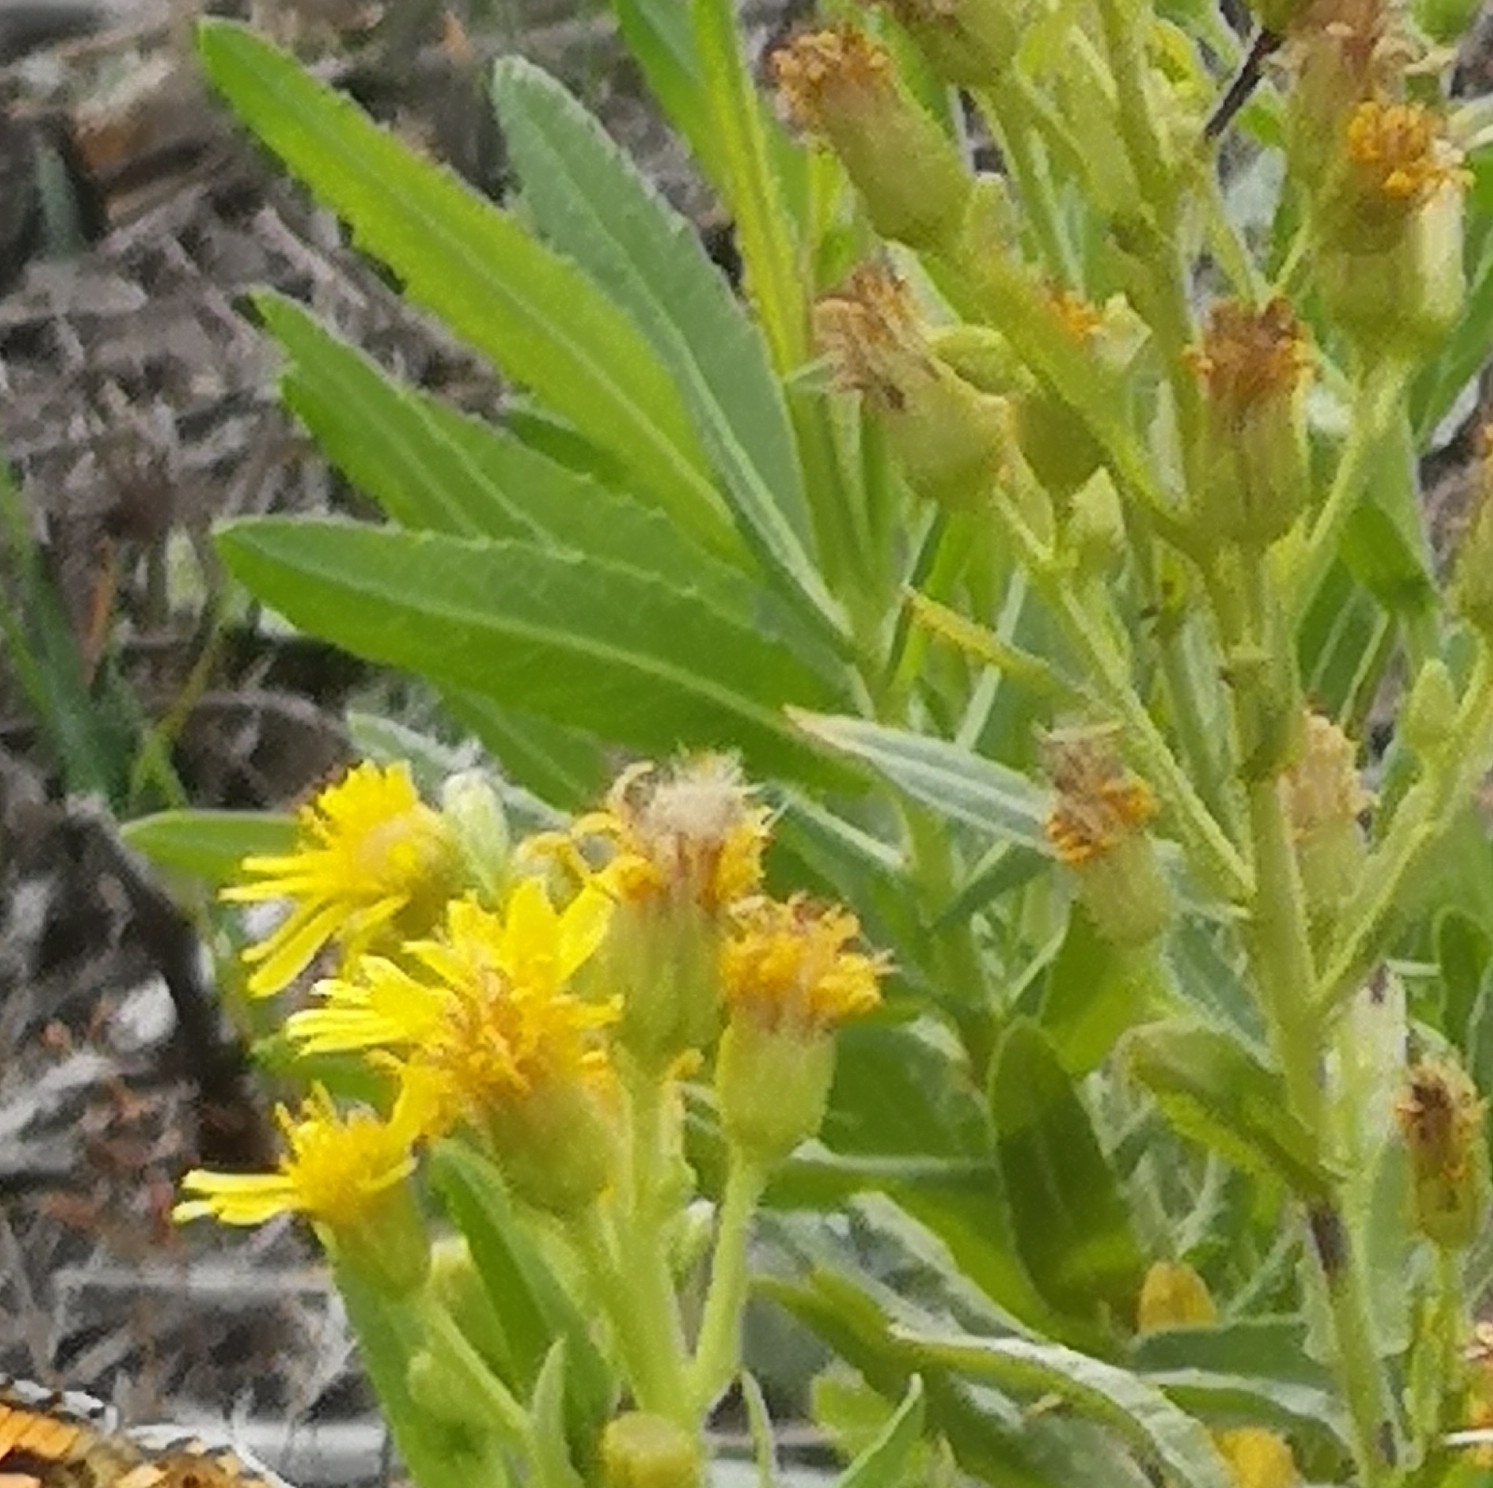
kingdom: Plantae
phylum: Tracheophyta
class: Magnoliopsida
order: Asterales
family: Asteraceae
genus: Dittrichia
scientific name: Dittrichia viscosa
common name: Woody fleabane
